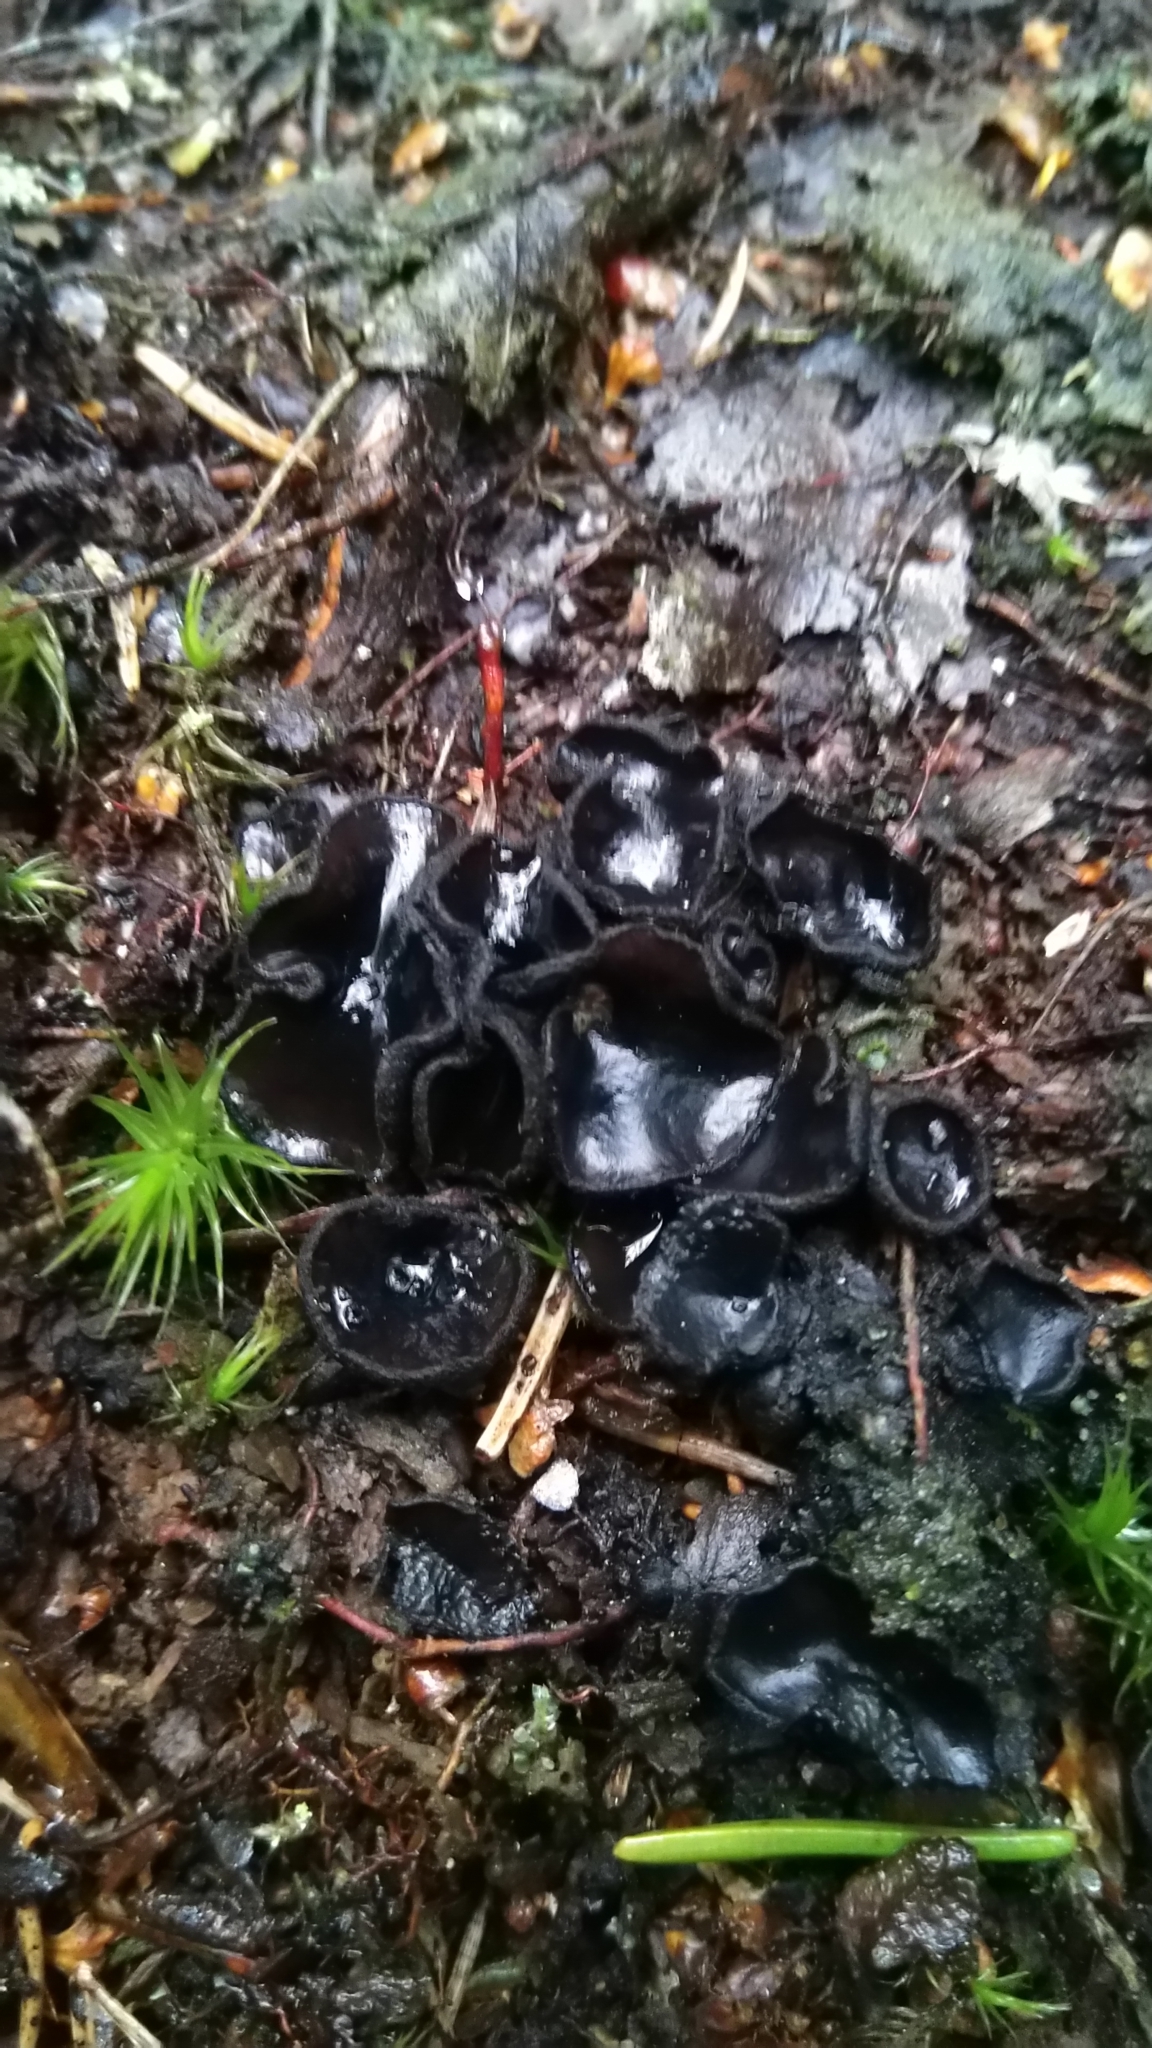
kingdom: Fungi
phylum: Ascomycota
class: Pezizomycetes
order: Pezizales
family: Sarcosomataceae
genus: Pseudoplectania
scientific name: Pseudoplectania nigrella
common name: Ebony cup
